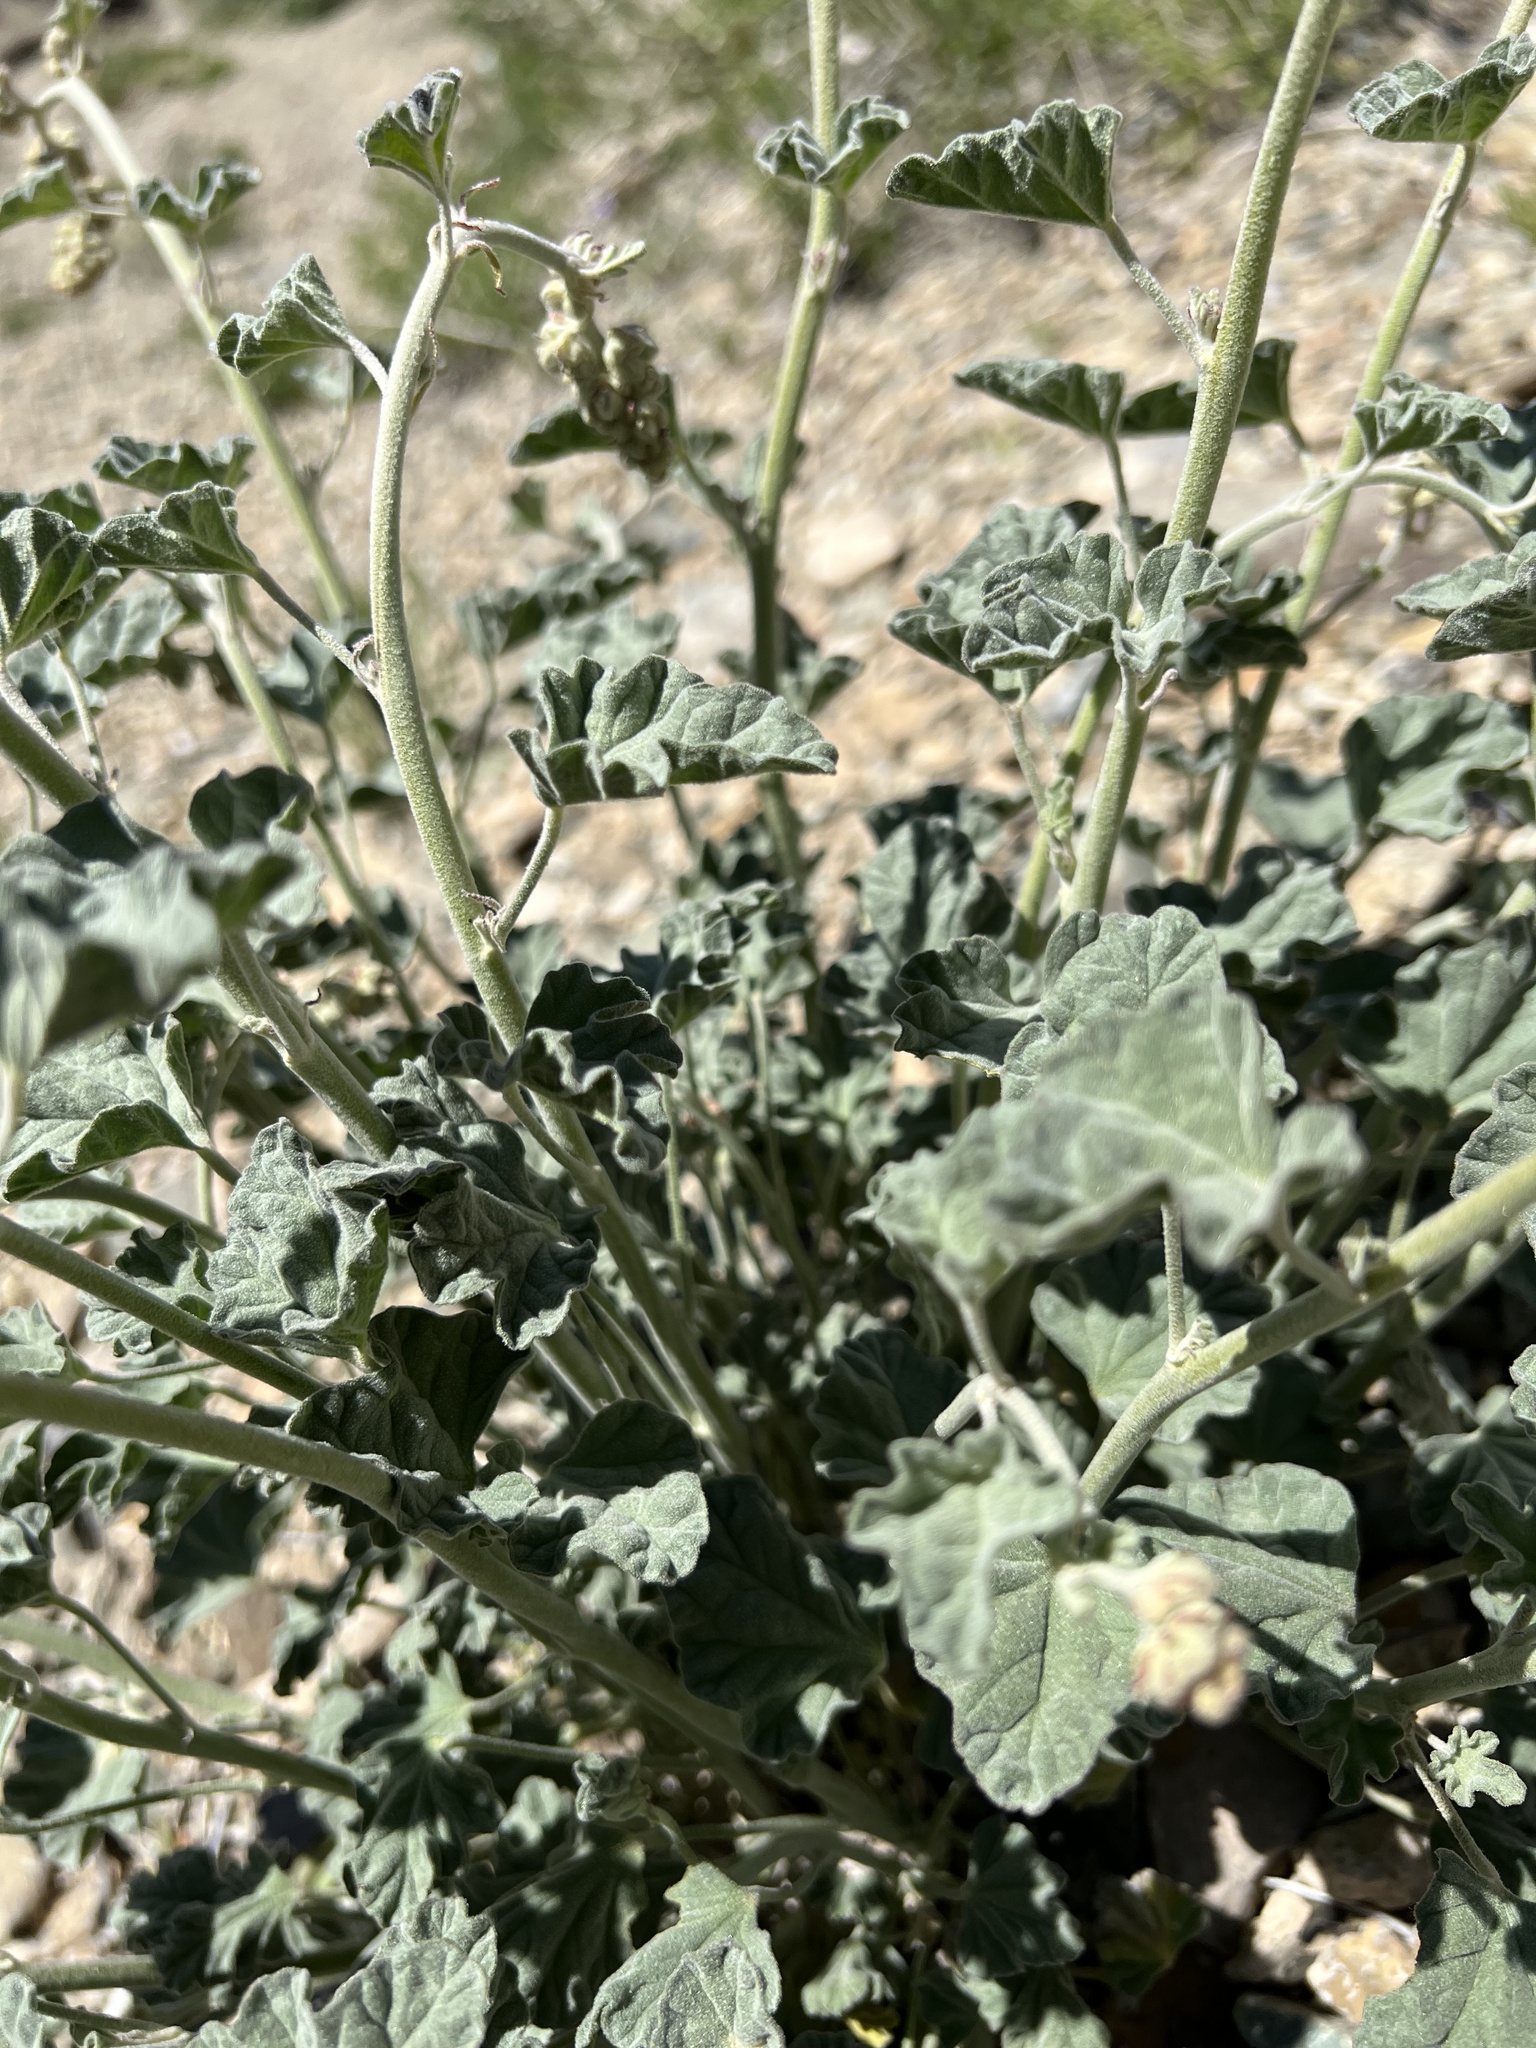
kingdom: Plantae
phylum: Tracheophyta
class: Magnoliopsida
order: Malvales
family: Malvaceae
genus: Sphaeralcea
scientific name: Sphaeralcea ambigua
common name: Apricot globe-mallow
